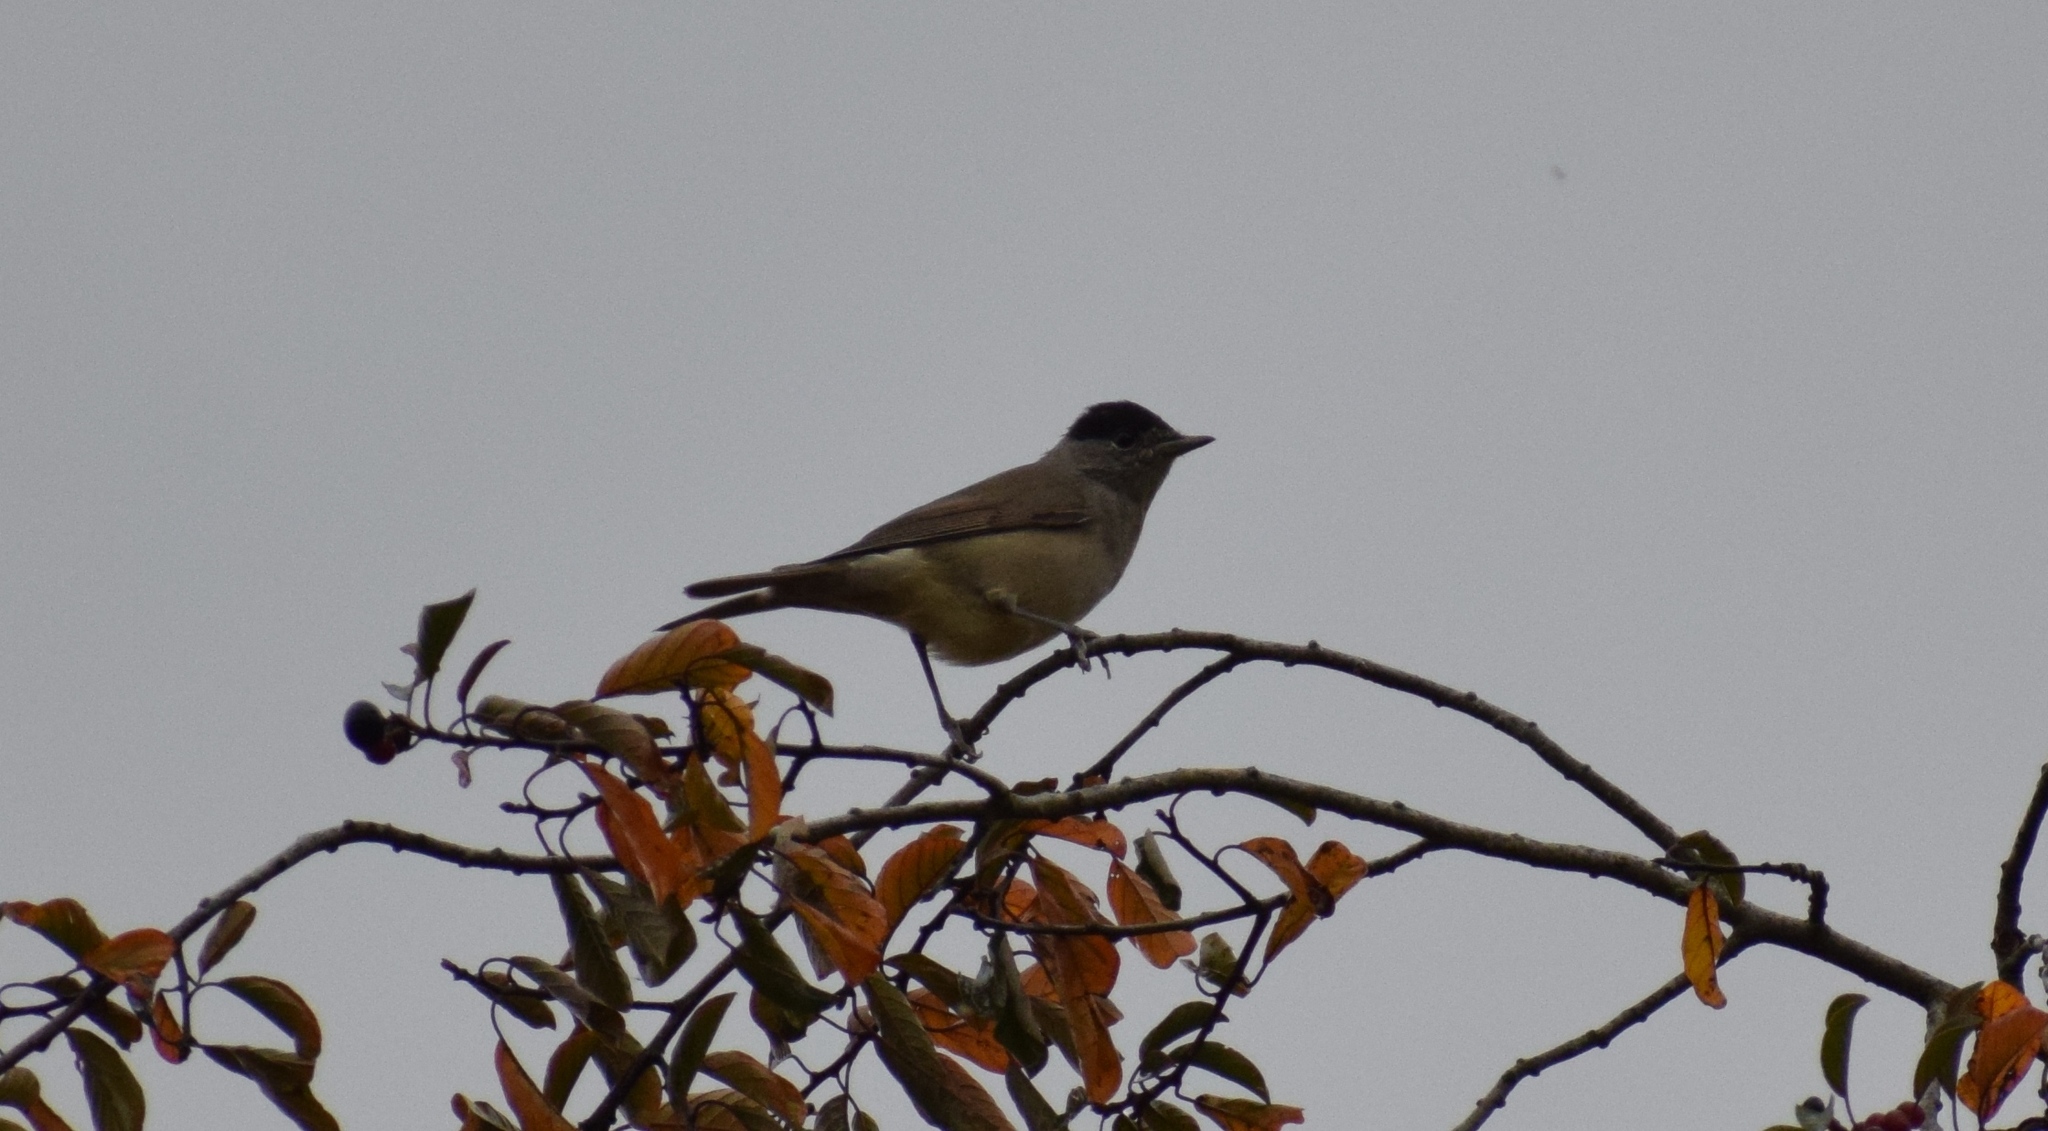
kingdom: Animalia
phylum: Chordata
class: Aves
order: Passeriformes
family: Sylviidae
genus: Sylvia
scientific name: Sylvia atricapilla
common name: Eurasian blackcap
